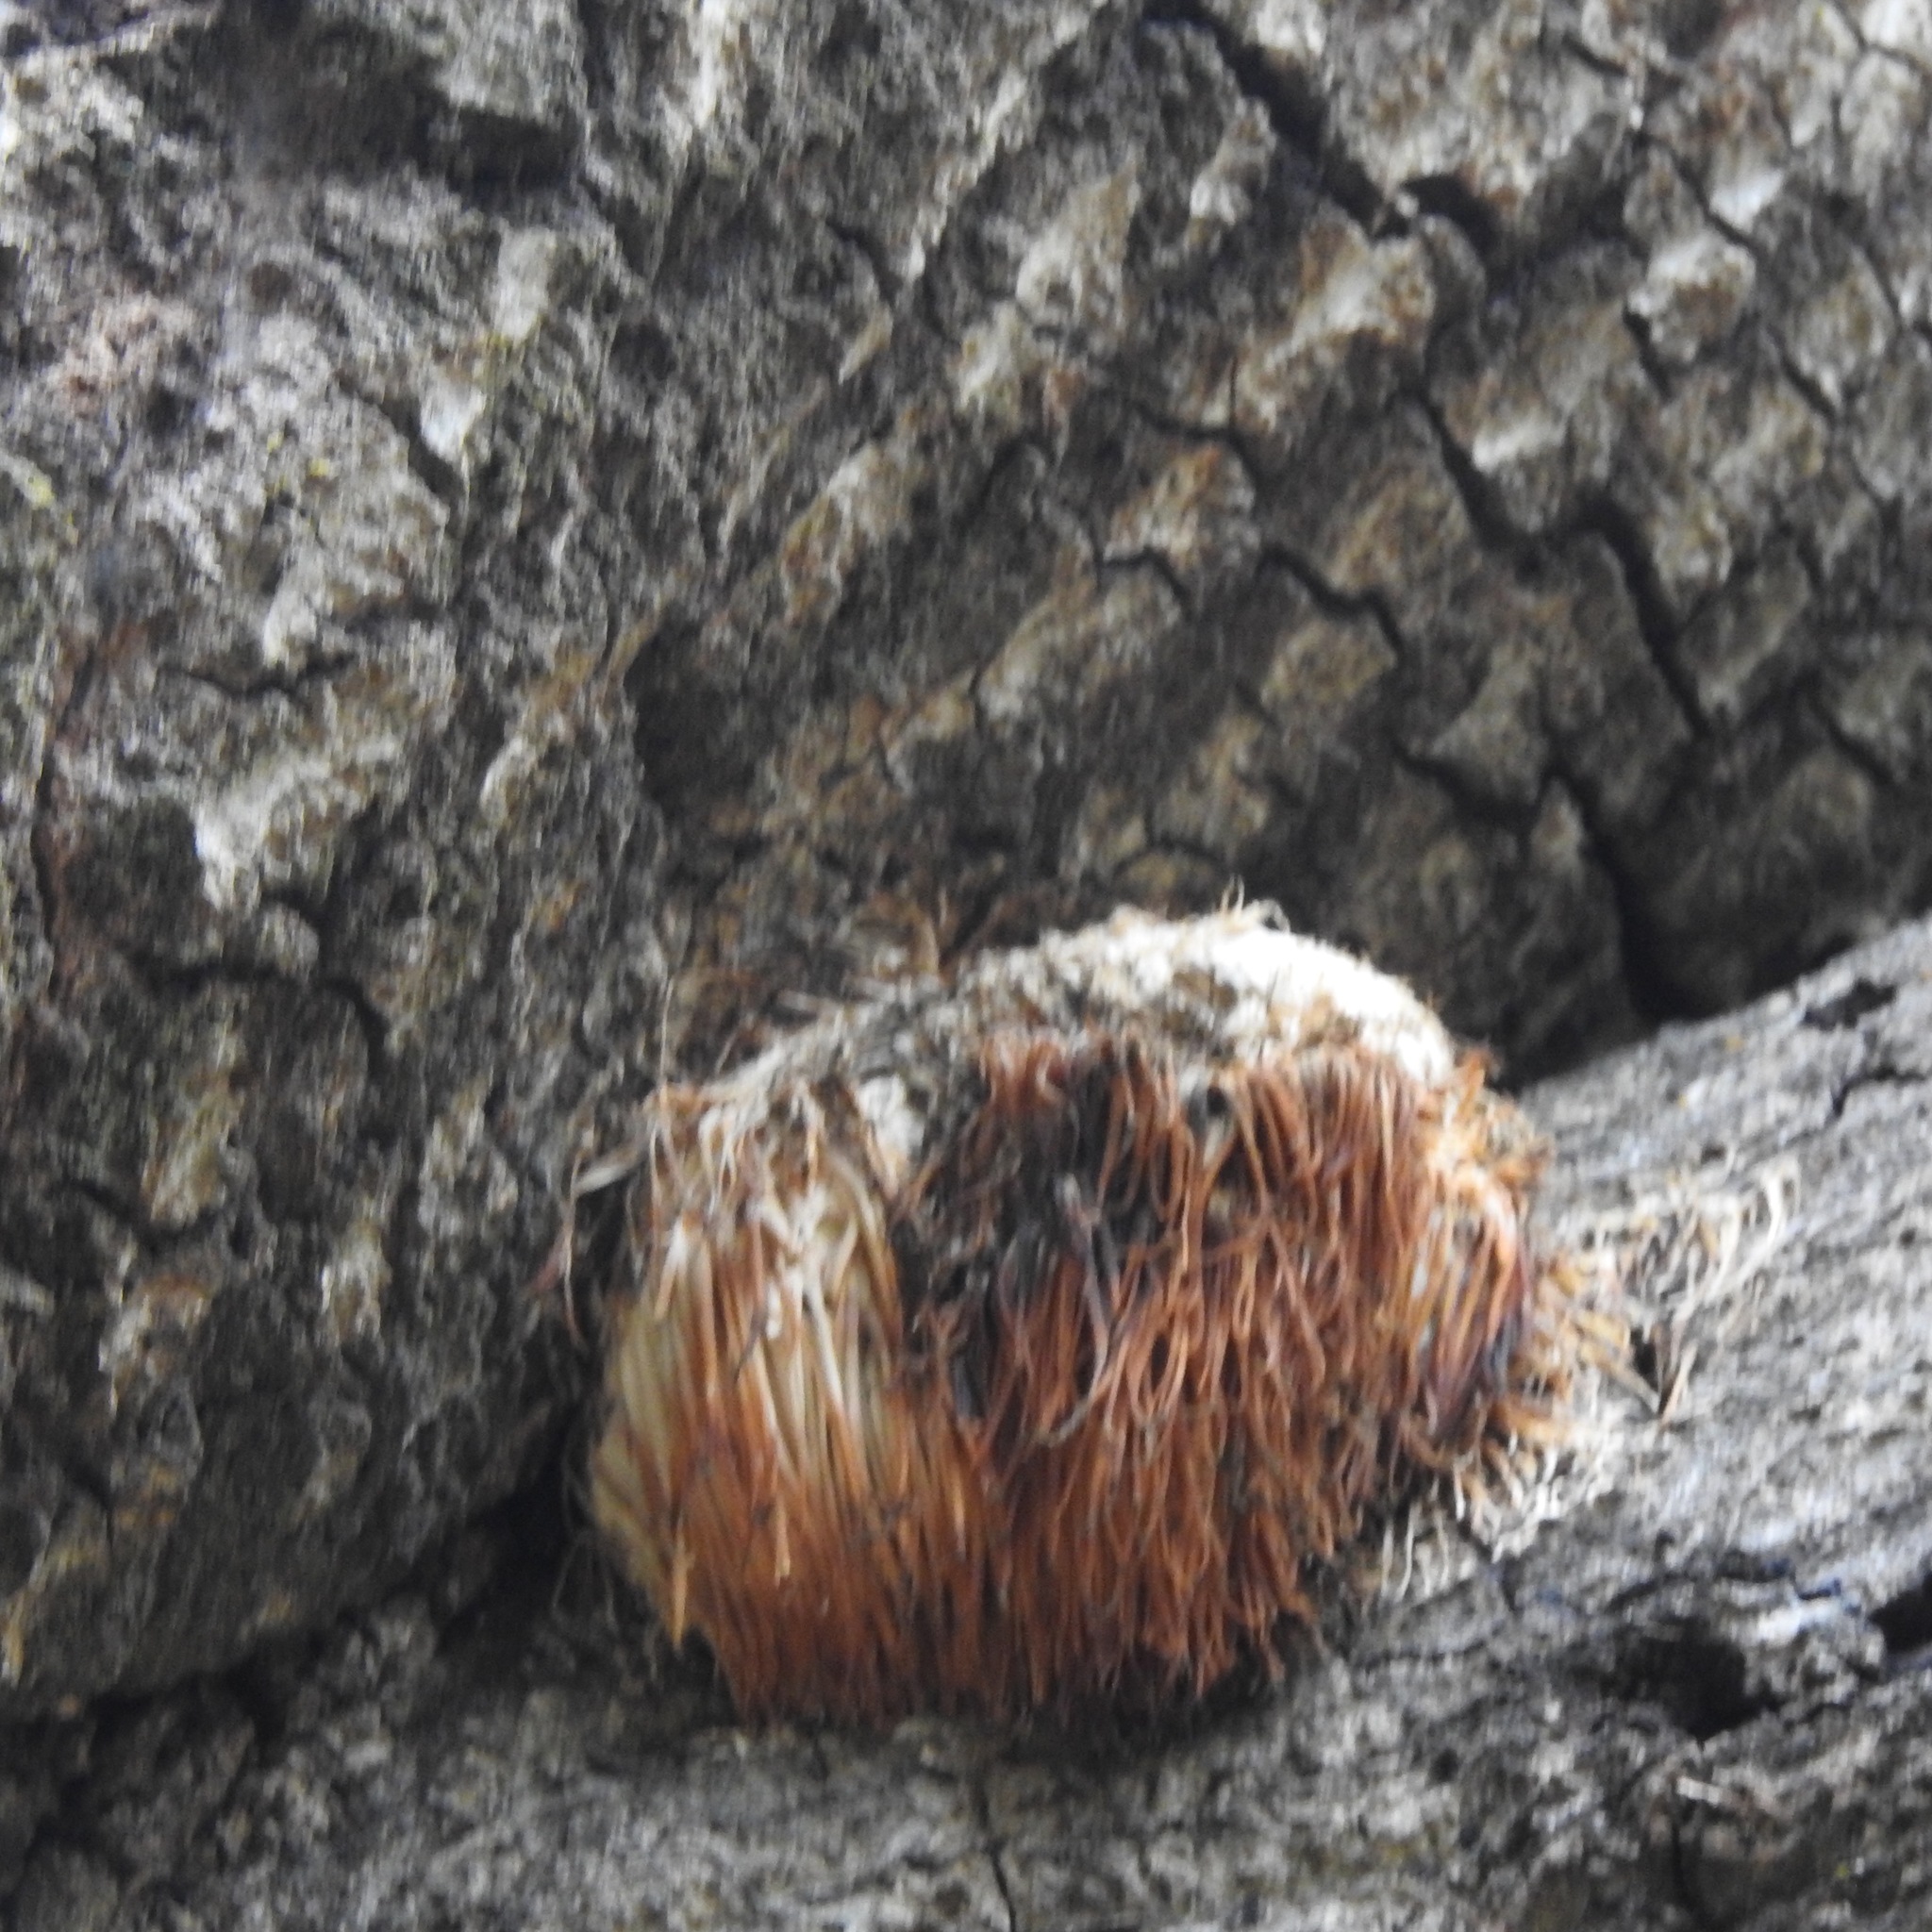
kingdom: Fungi
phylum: Basidiomycota
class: Agaricomycetes
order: Russulales
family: Hericiaceae
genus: Hericium
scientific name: Hericium erinaceus
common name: Bearded tooth
